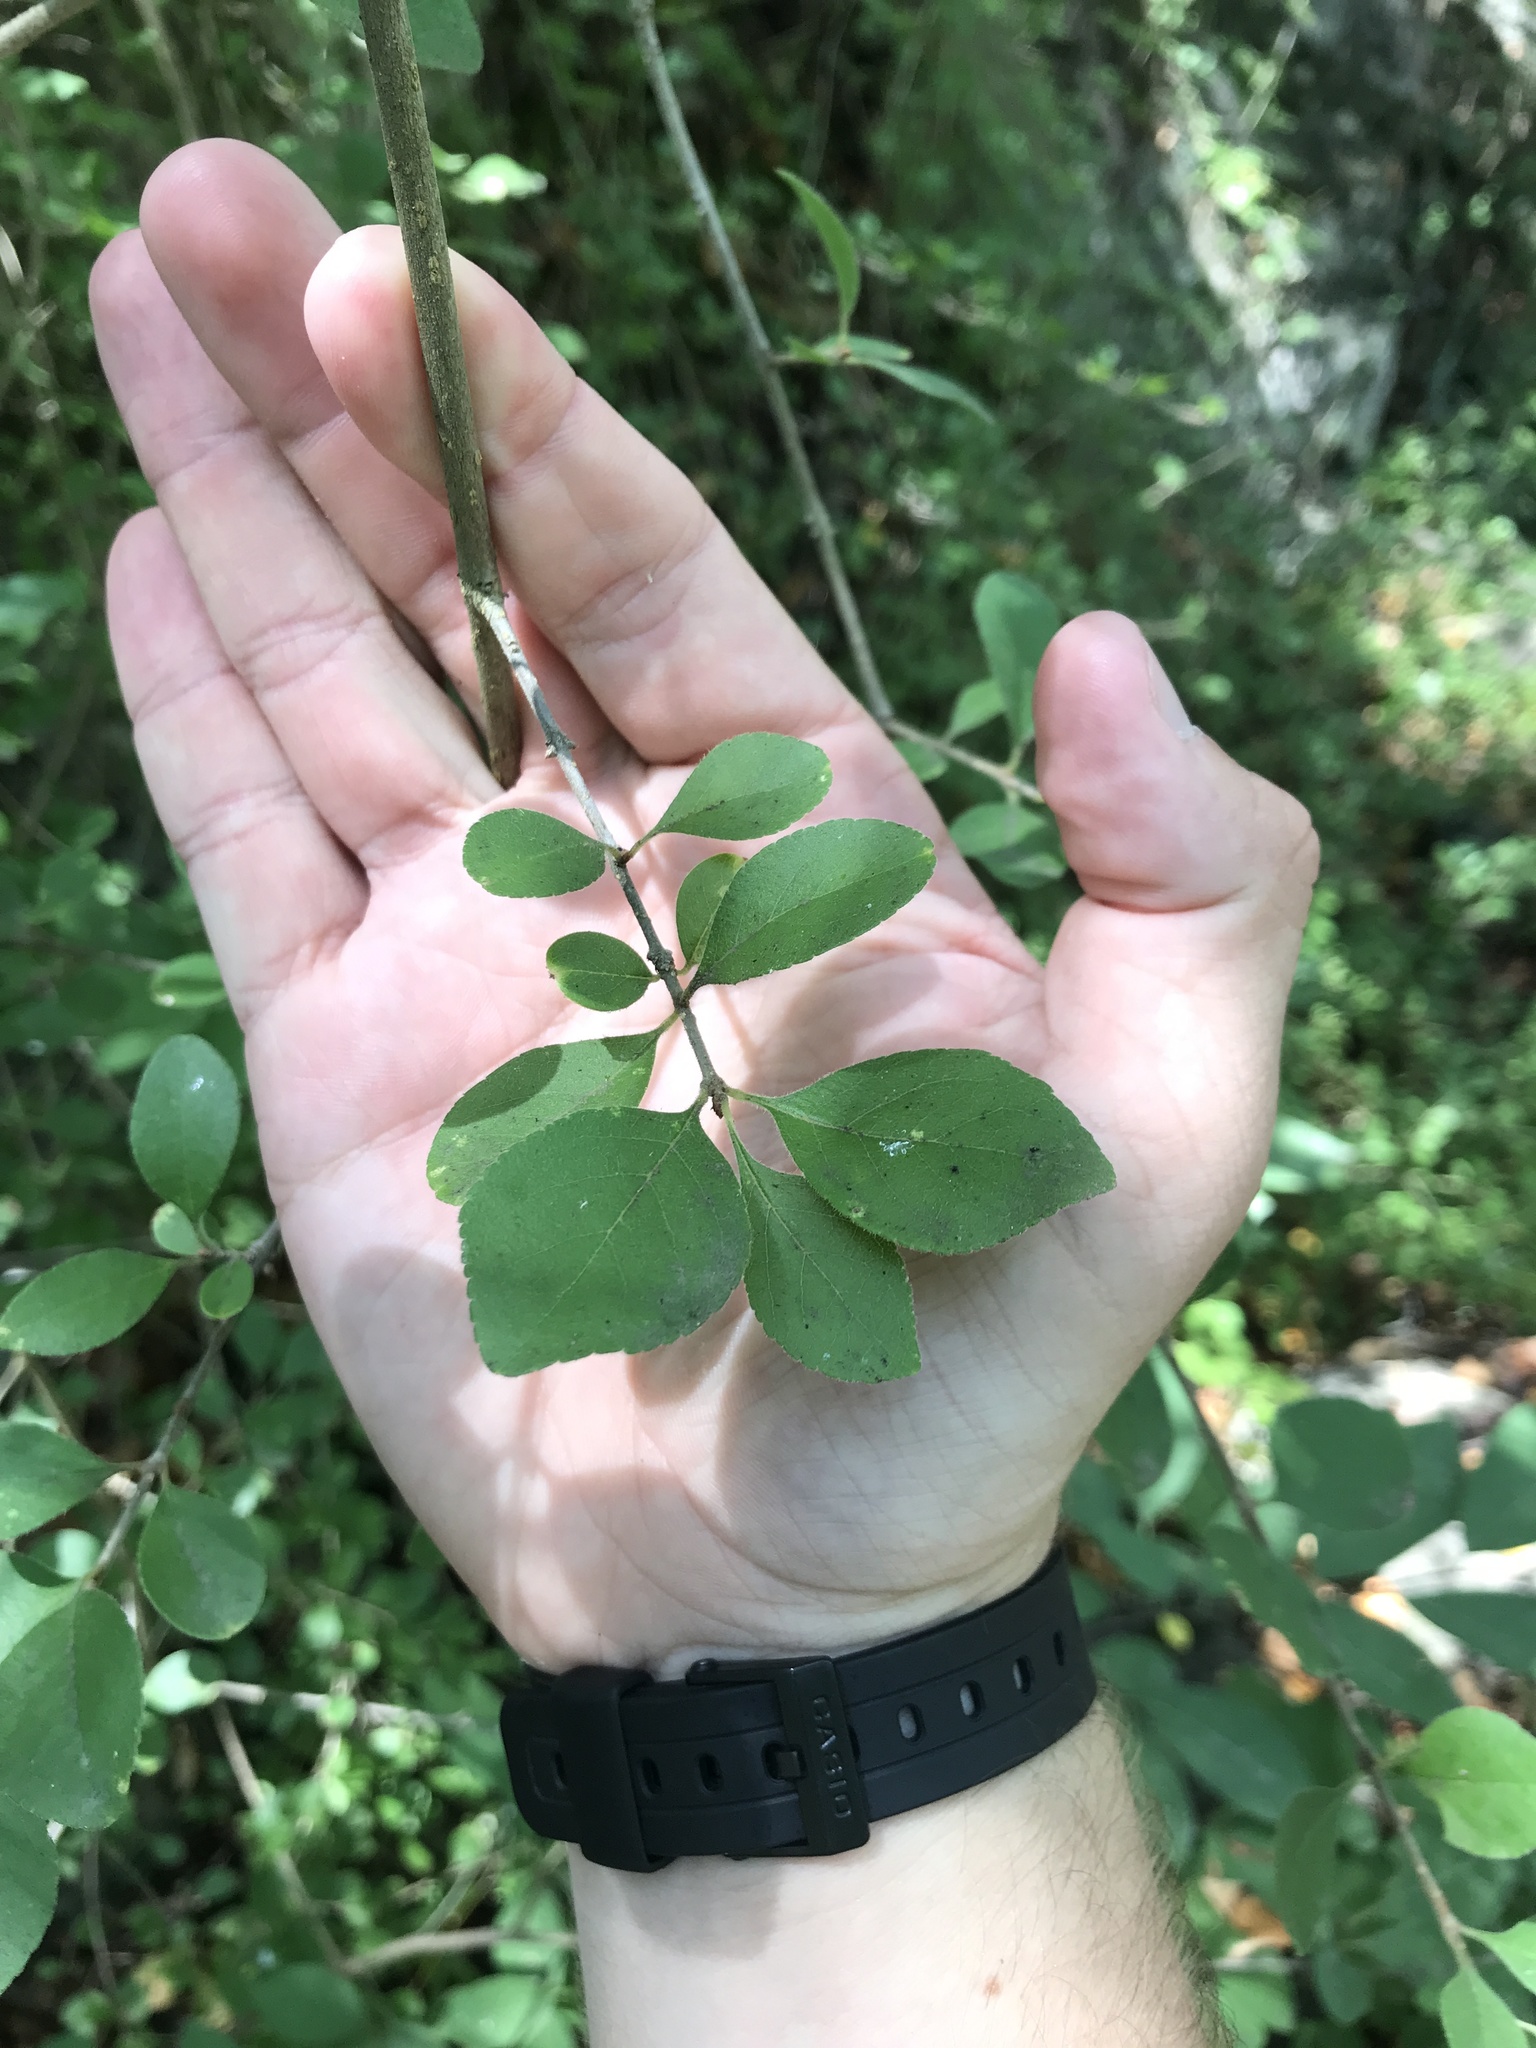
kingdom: Plantae
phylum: Tracheophyta
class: Magnoliopsida
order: Lamiales
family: Oleaceae
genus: Forestiera
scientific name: Forestiera pubescens
